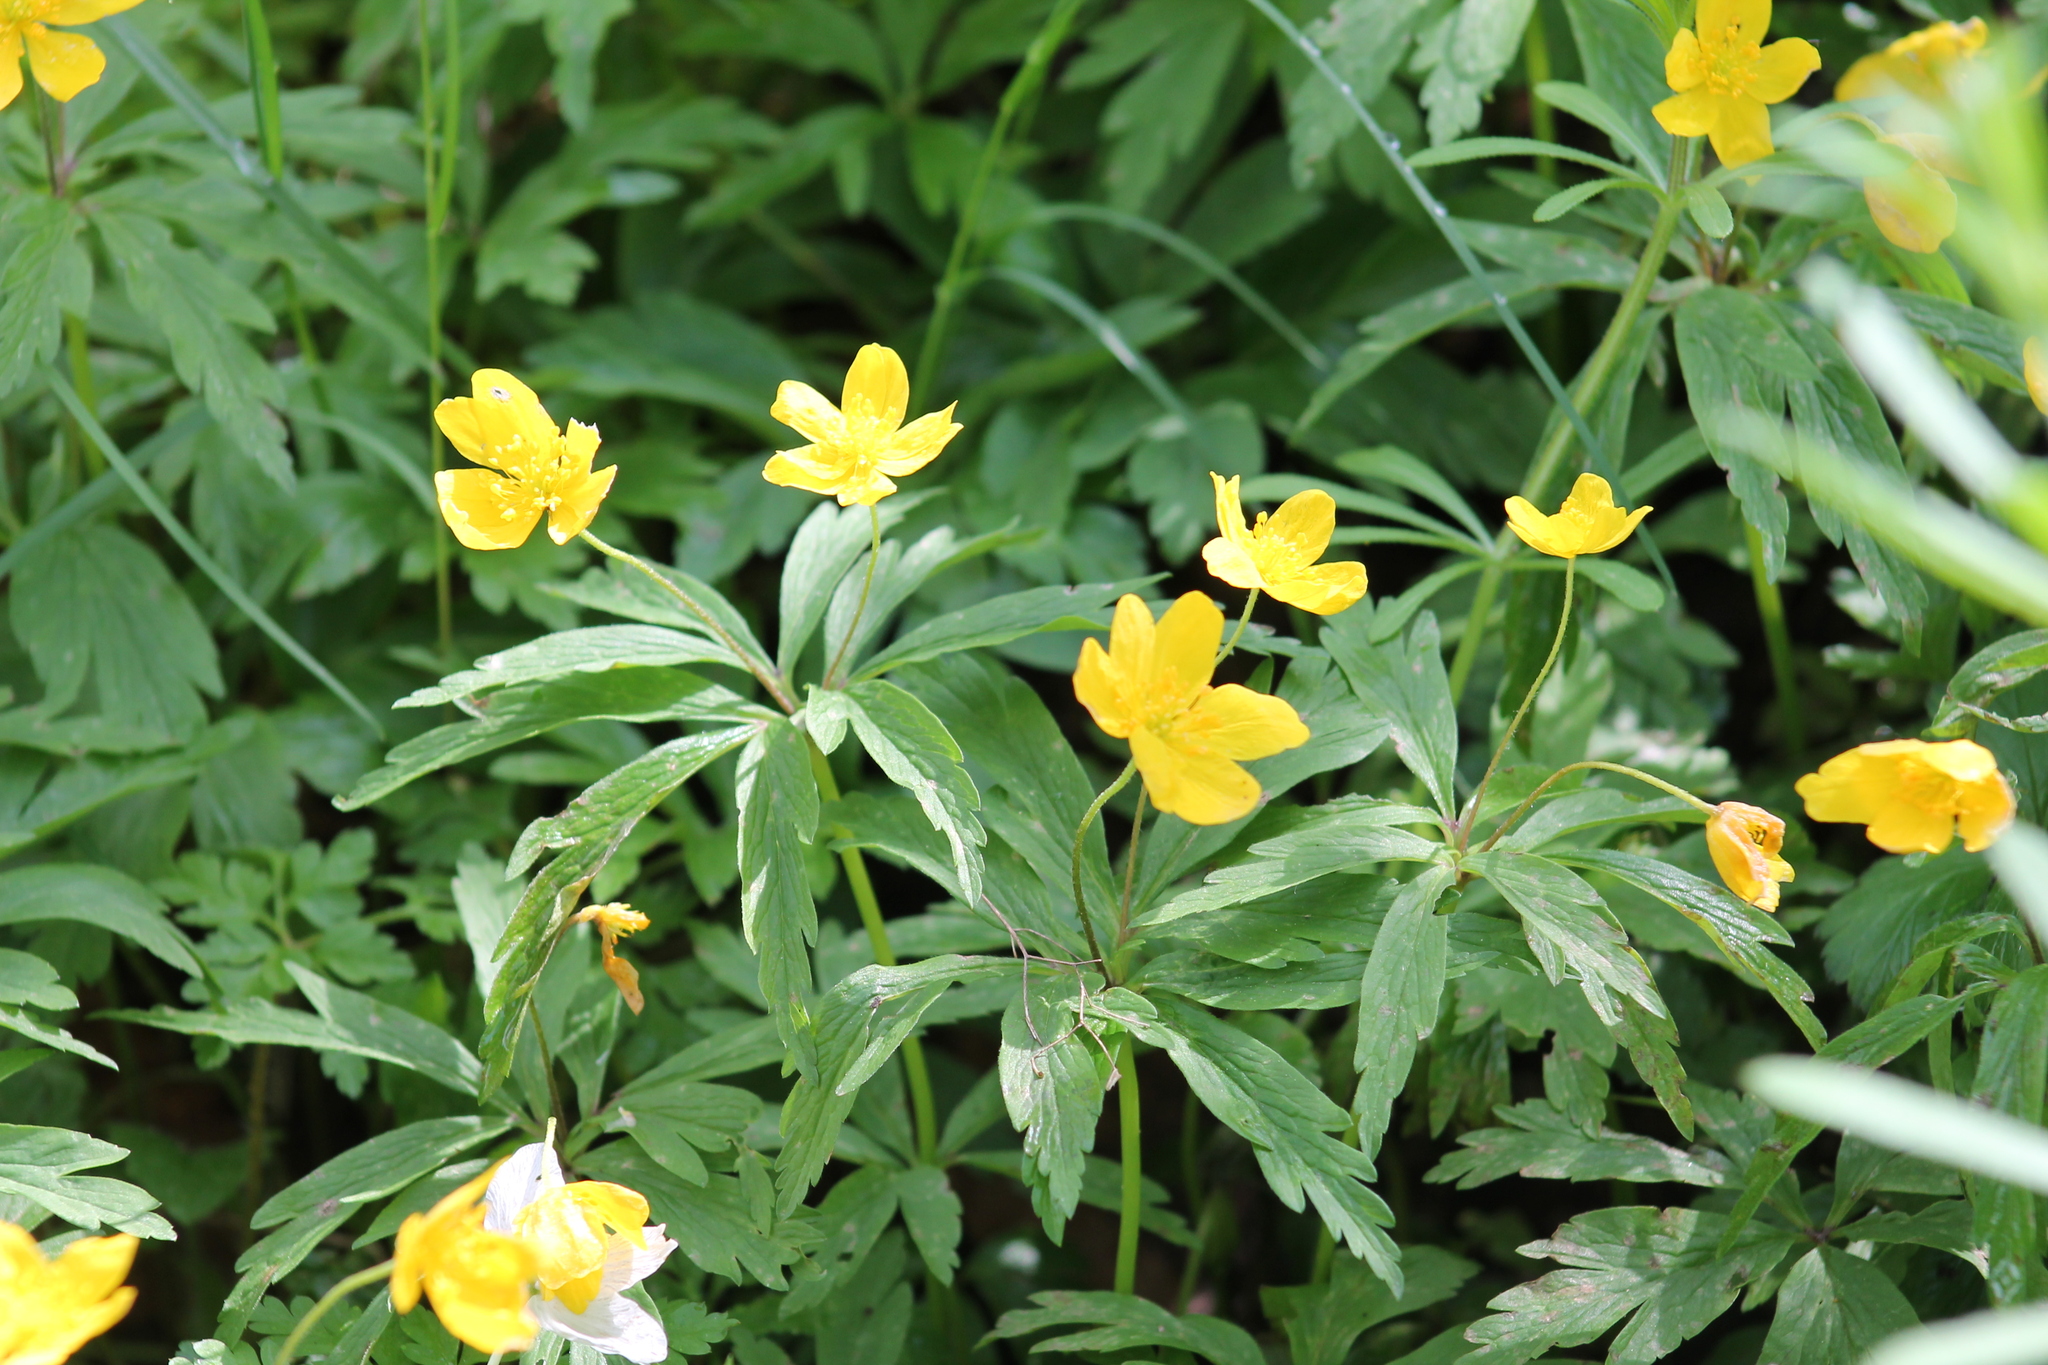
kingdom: Plantae
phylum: Tracheophyta
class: Magnoliopsida
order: Ranunculales
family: Ranunculaceae
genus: Anemone
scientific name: Anemone ranunculoides
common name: Yellow anemone
